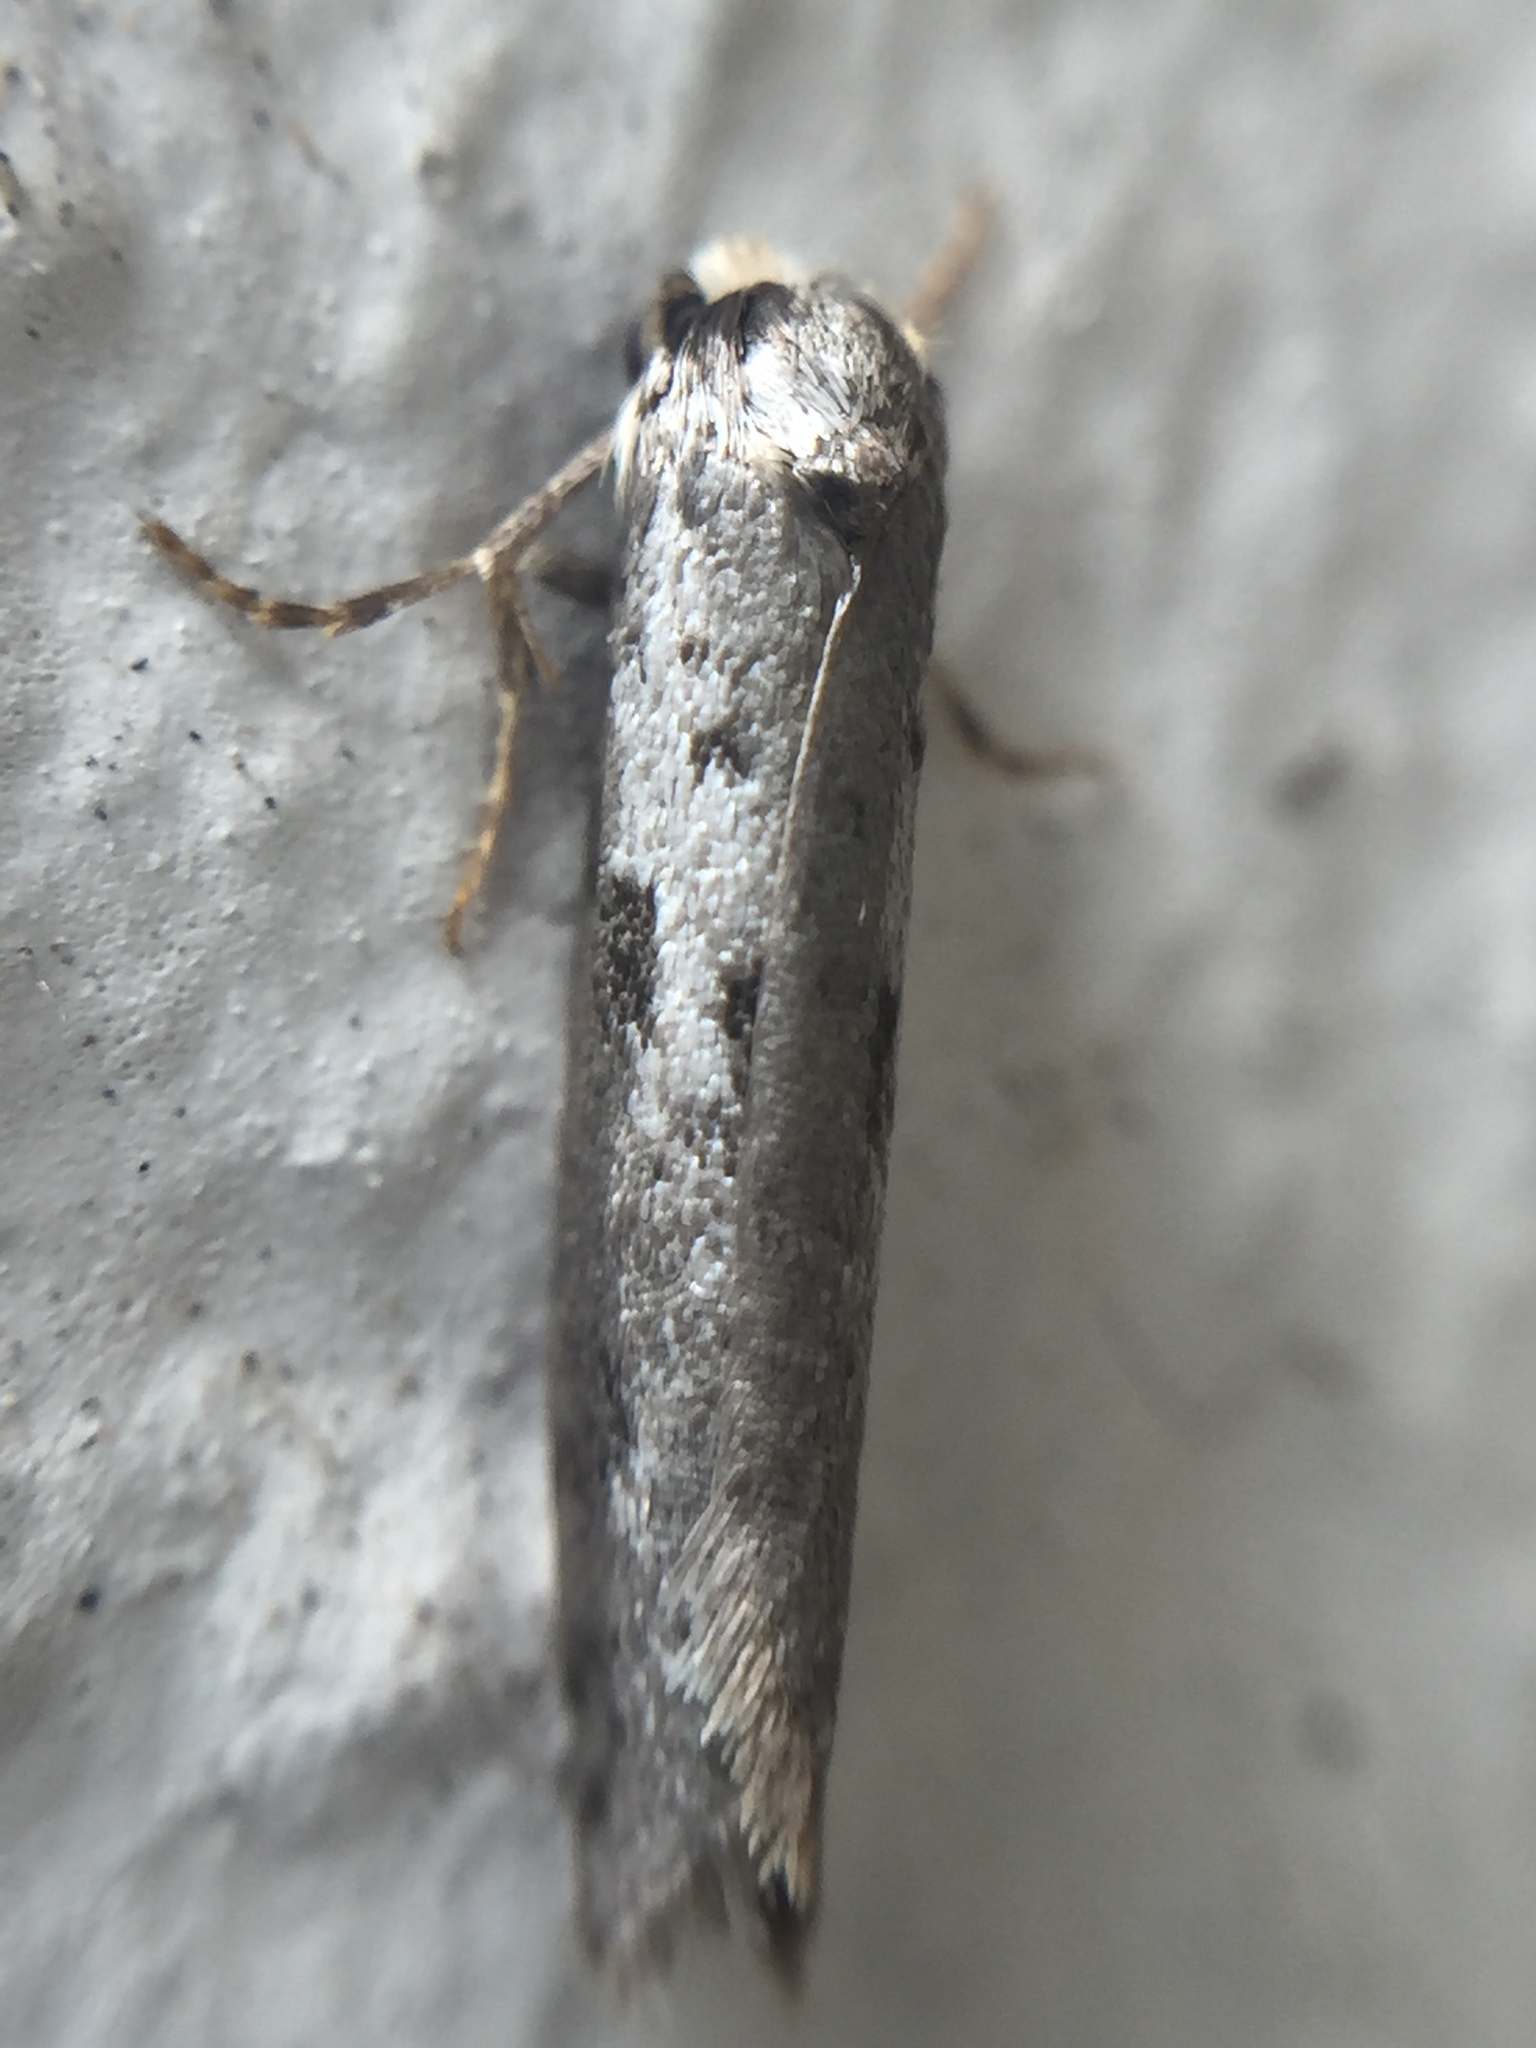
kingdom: Animalia
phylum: Arthropoda
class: Insecta
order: Lepidoptera
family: Psychidae
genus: Lepidoscia
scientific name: Lepidoscia protorna
